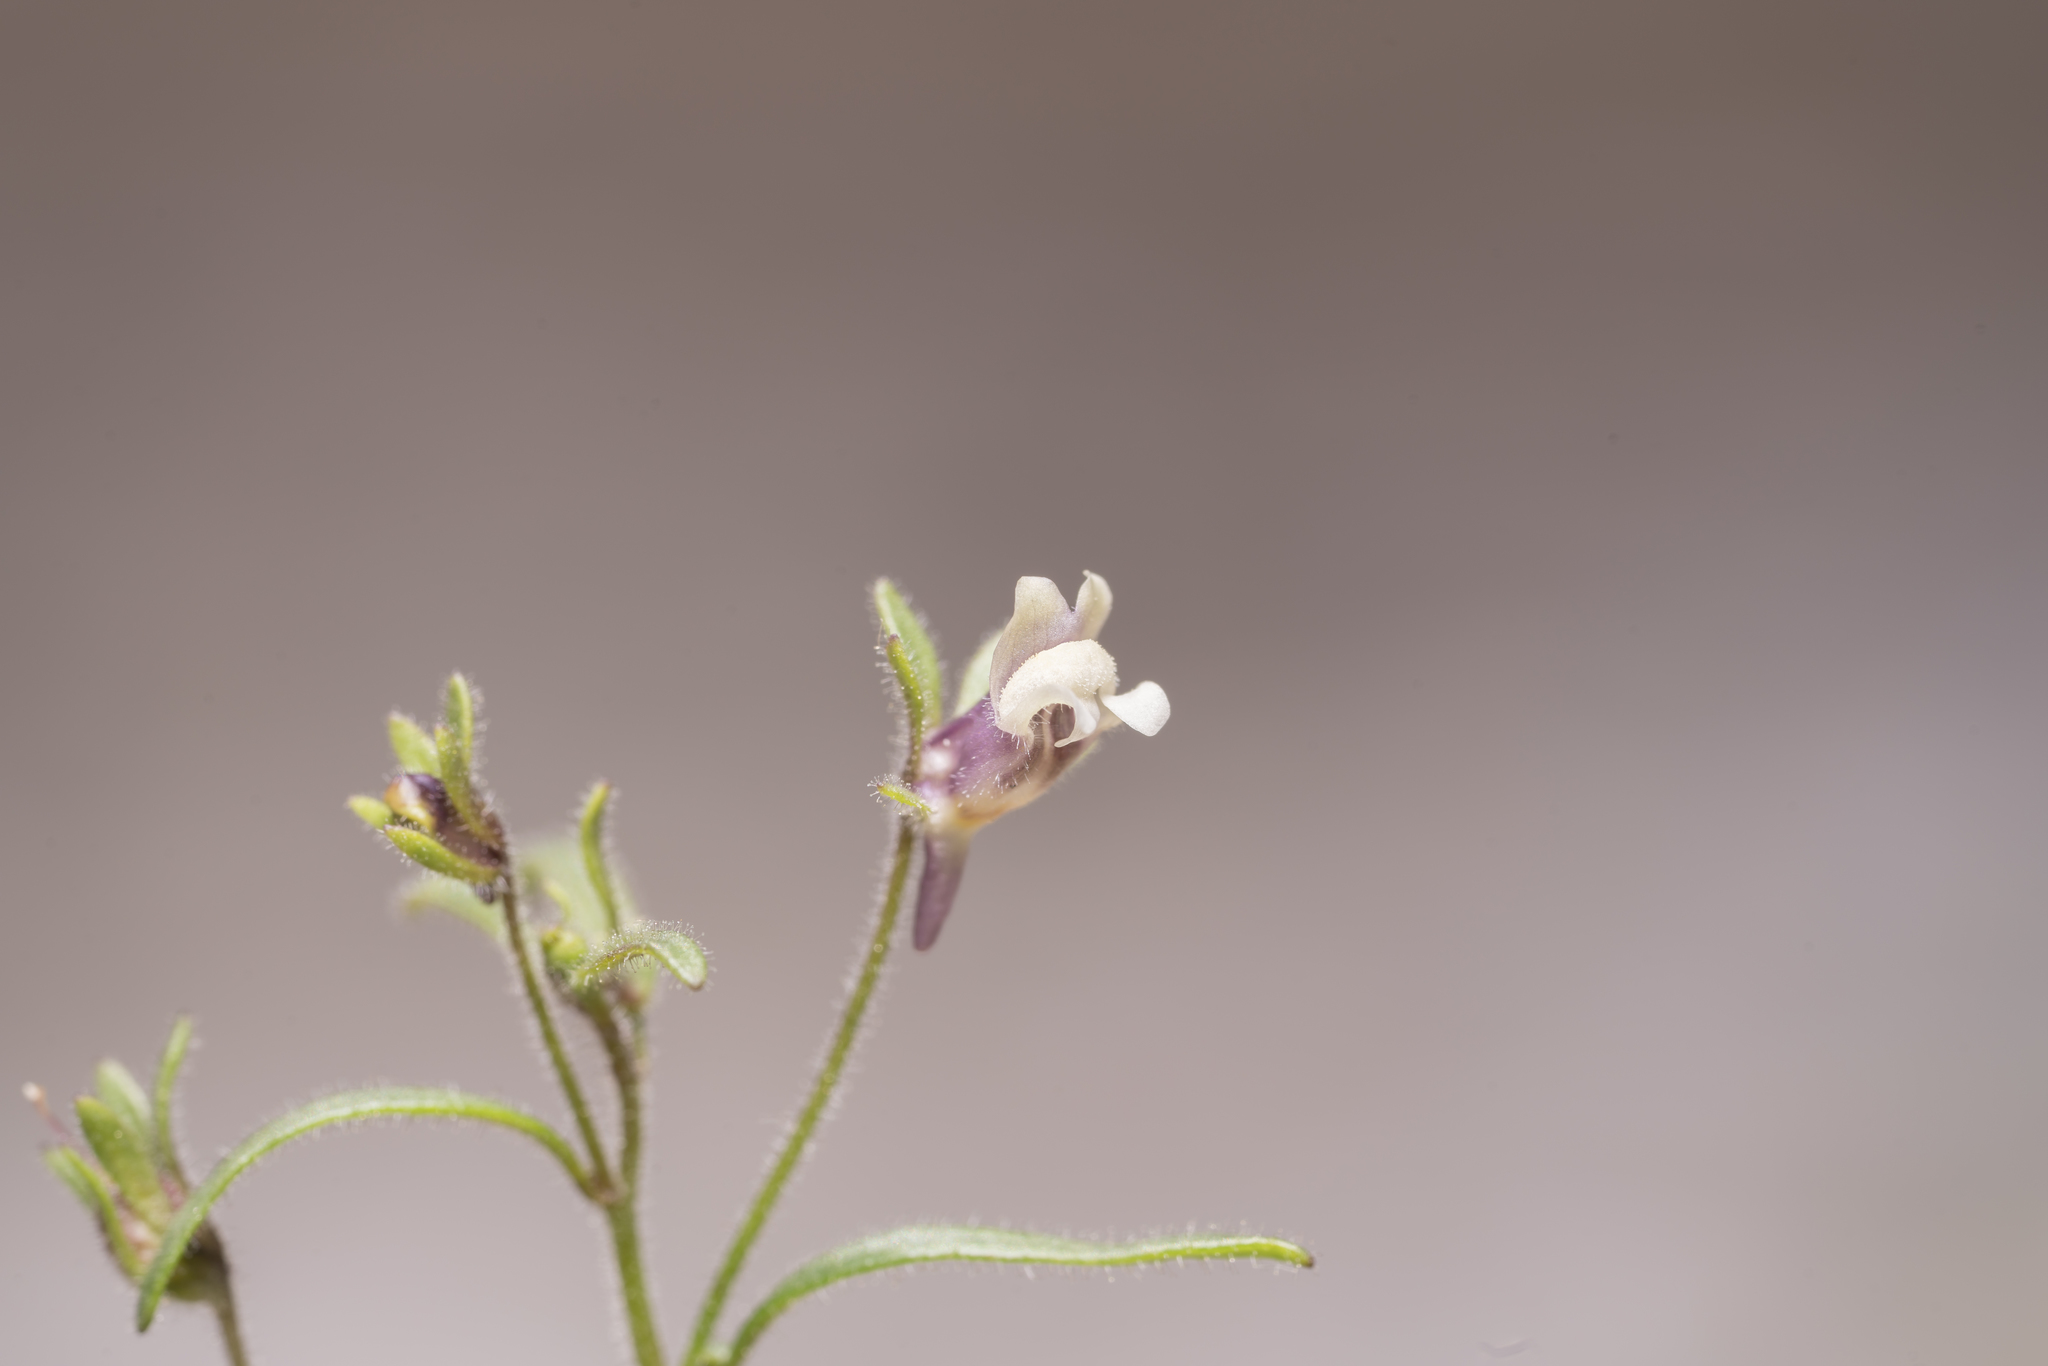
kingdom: Plantae
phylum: Tracheophyta
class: Magnoliopsida
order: Lamiales
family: Plantaginaceae
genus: Chaenorhinum
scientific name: Chaenorhinum minus
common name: Dwarf snapdragon
